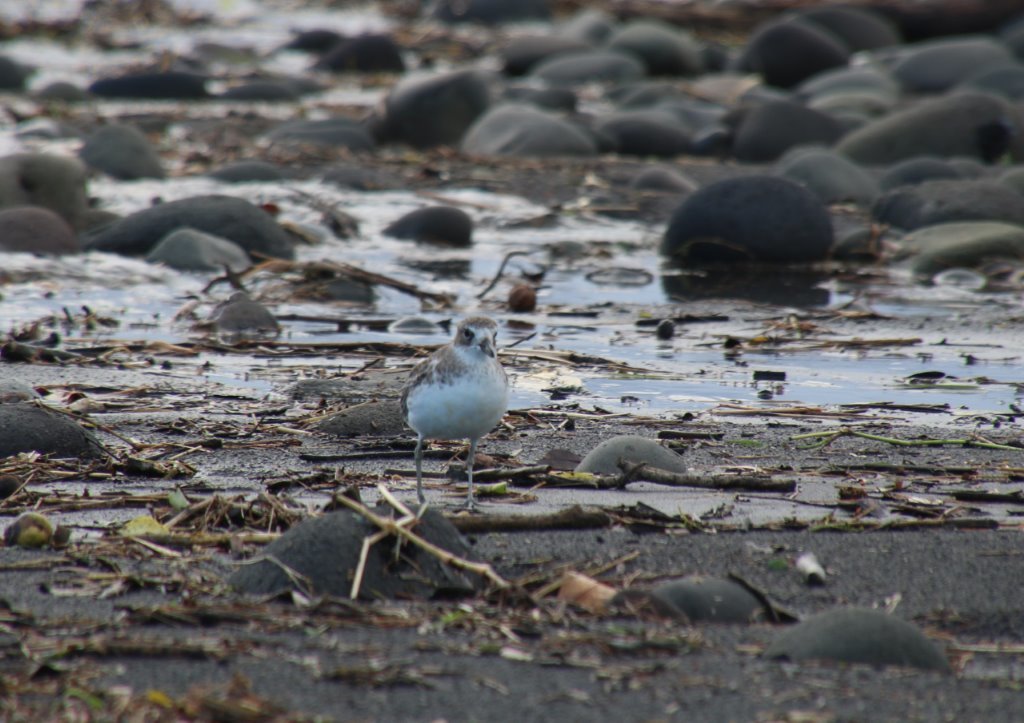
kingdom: Animalia
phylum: Chordata
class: Aves
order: Charadriiformes
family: Charadriidae
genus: Anarhynchus
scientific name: Anarhynchus
